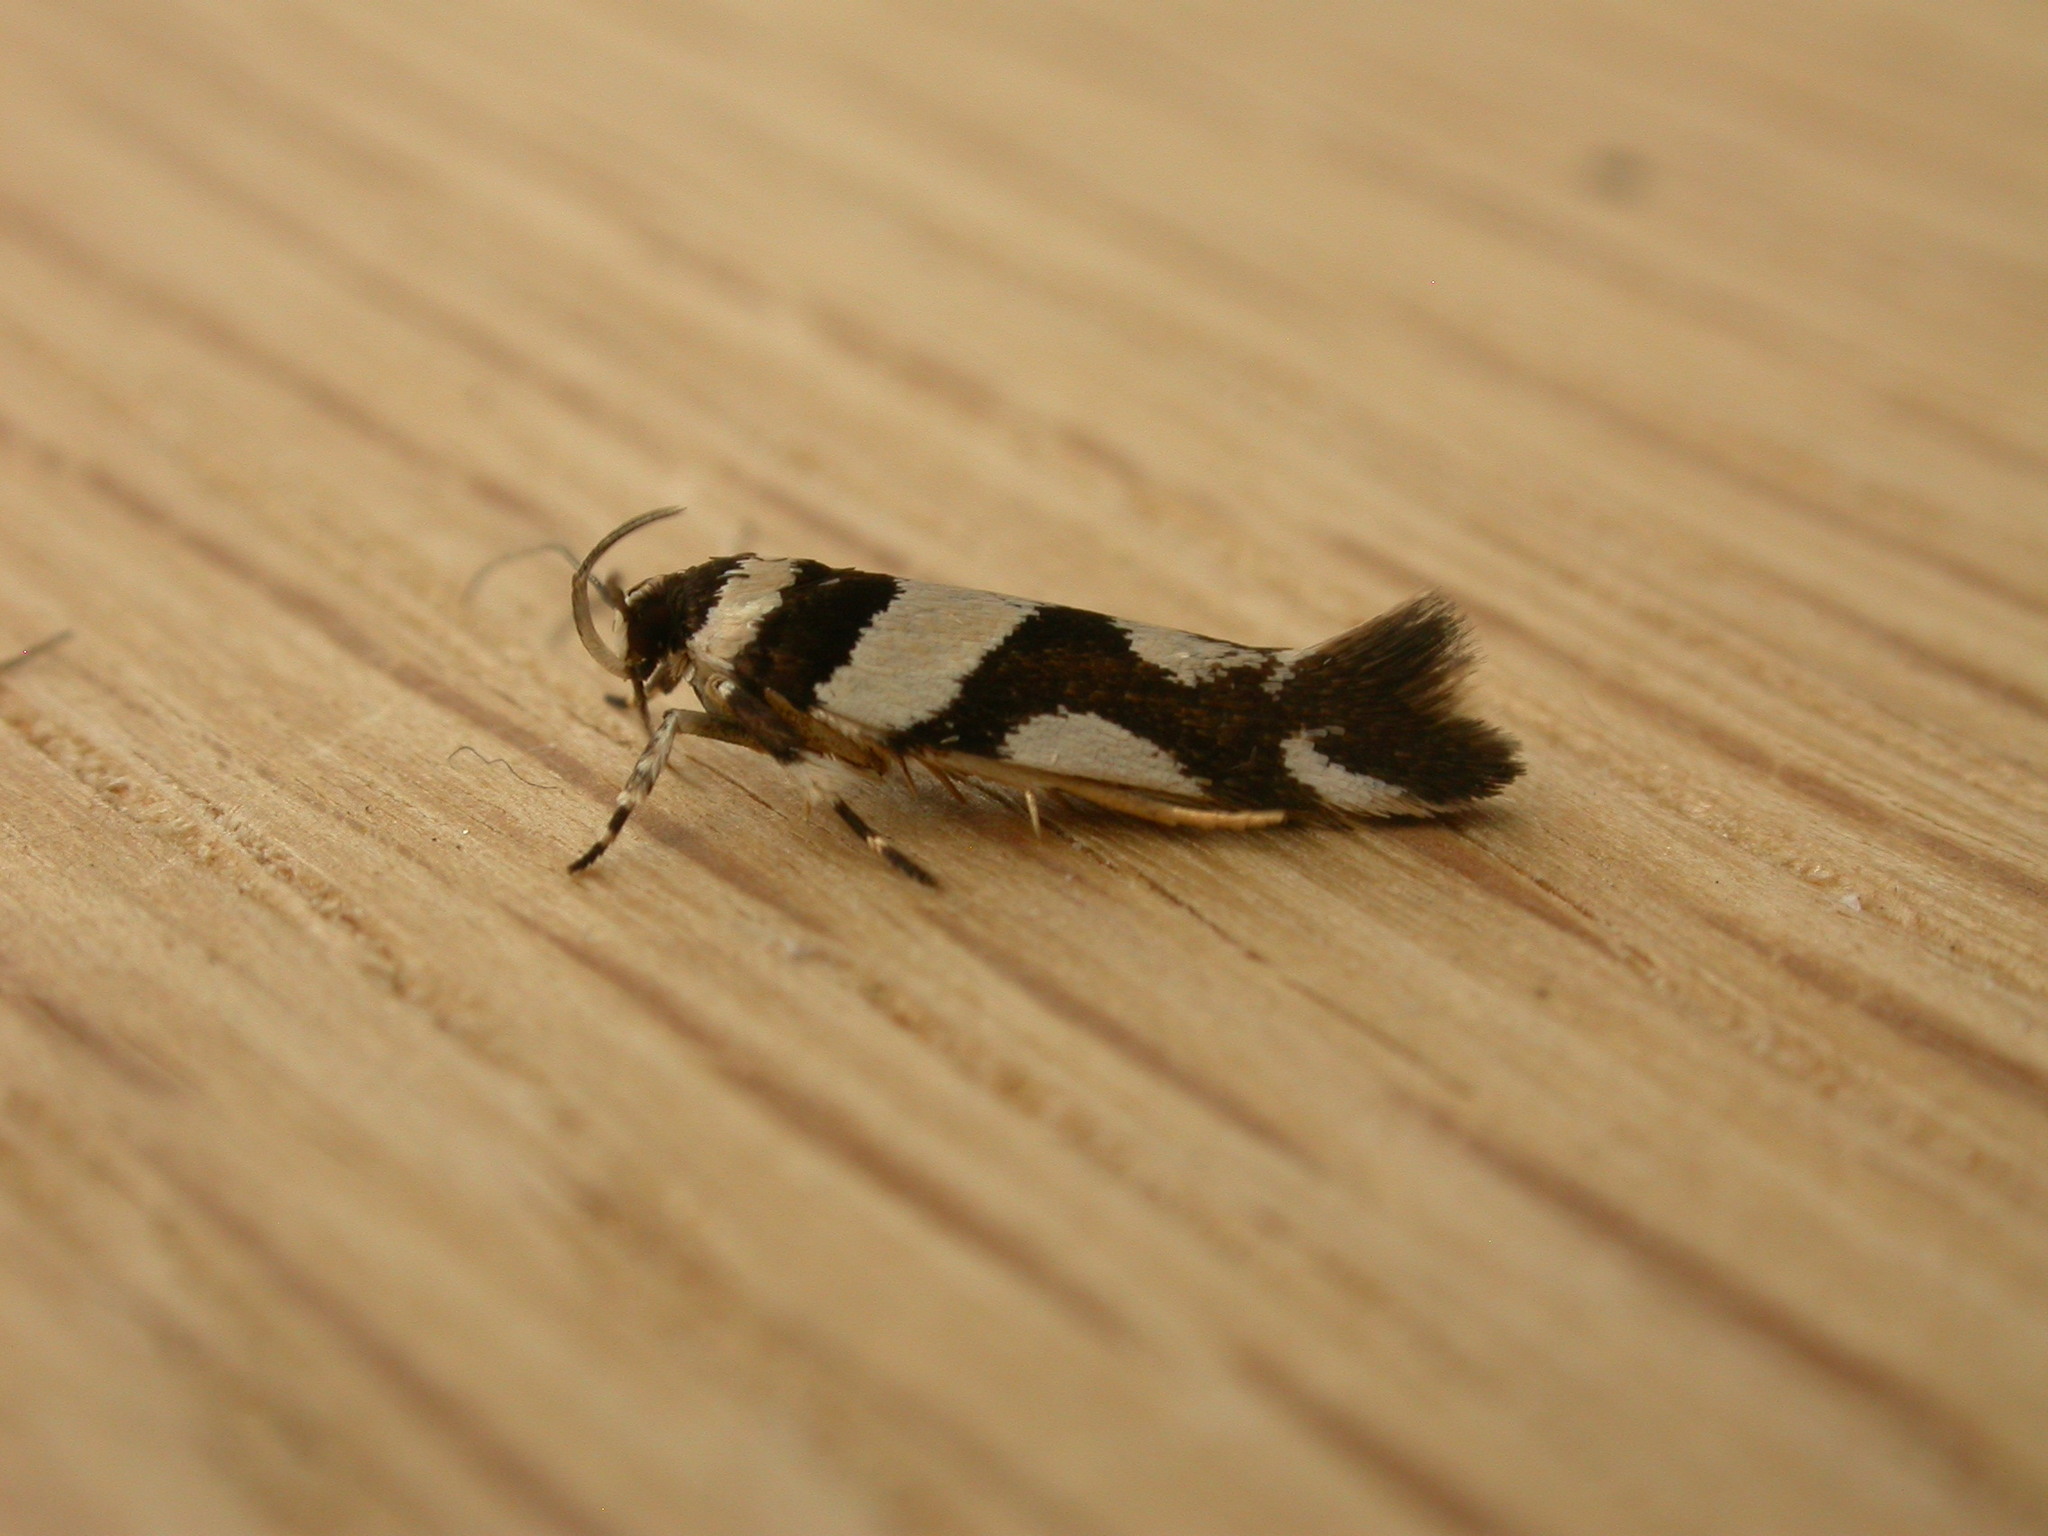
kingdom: Animalia
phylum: Arthropoda
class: Insecta
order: Lepidoptera
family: Cosmopterigidae
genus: Macrobathra
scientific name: Macrobathra desmotoma
